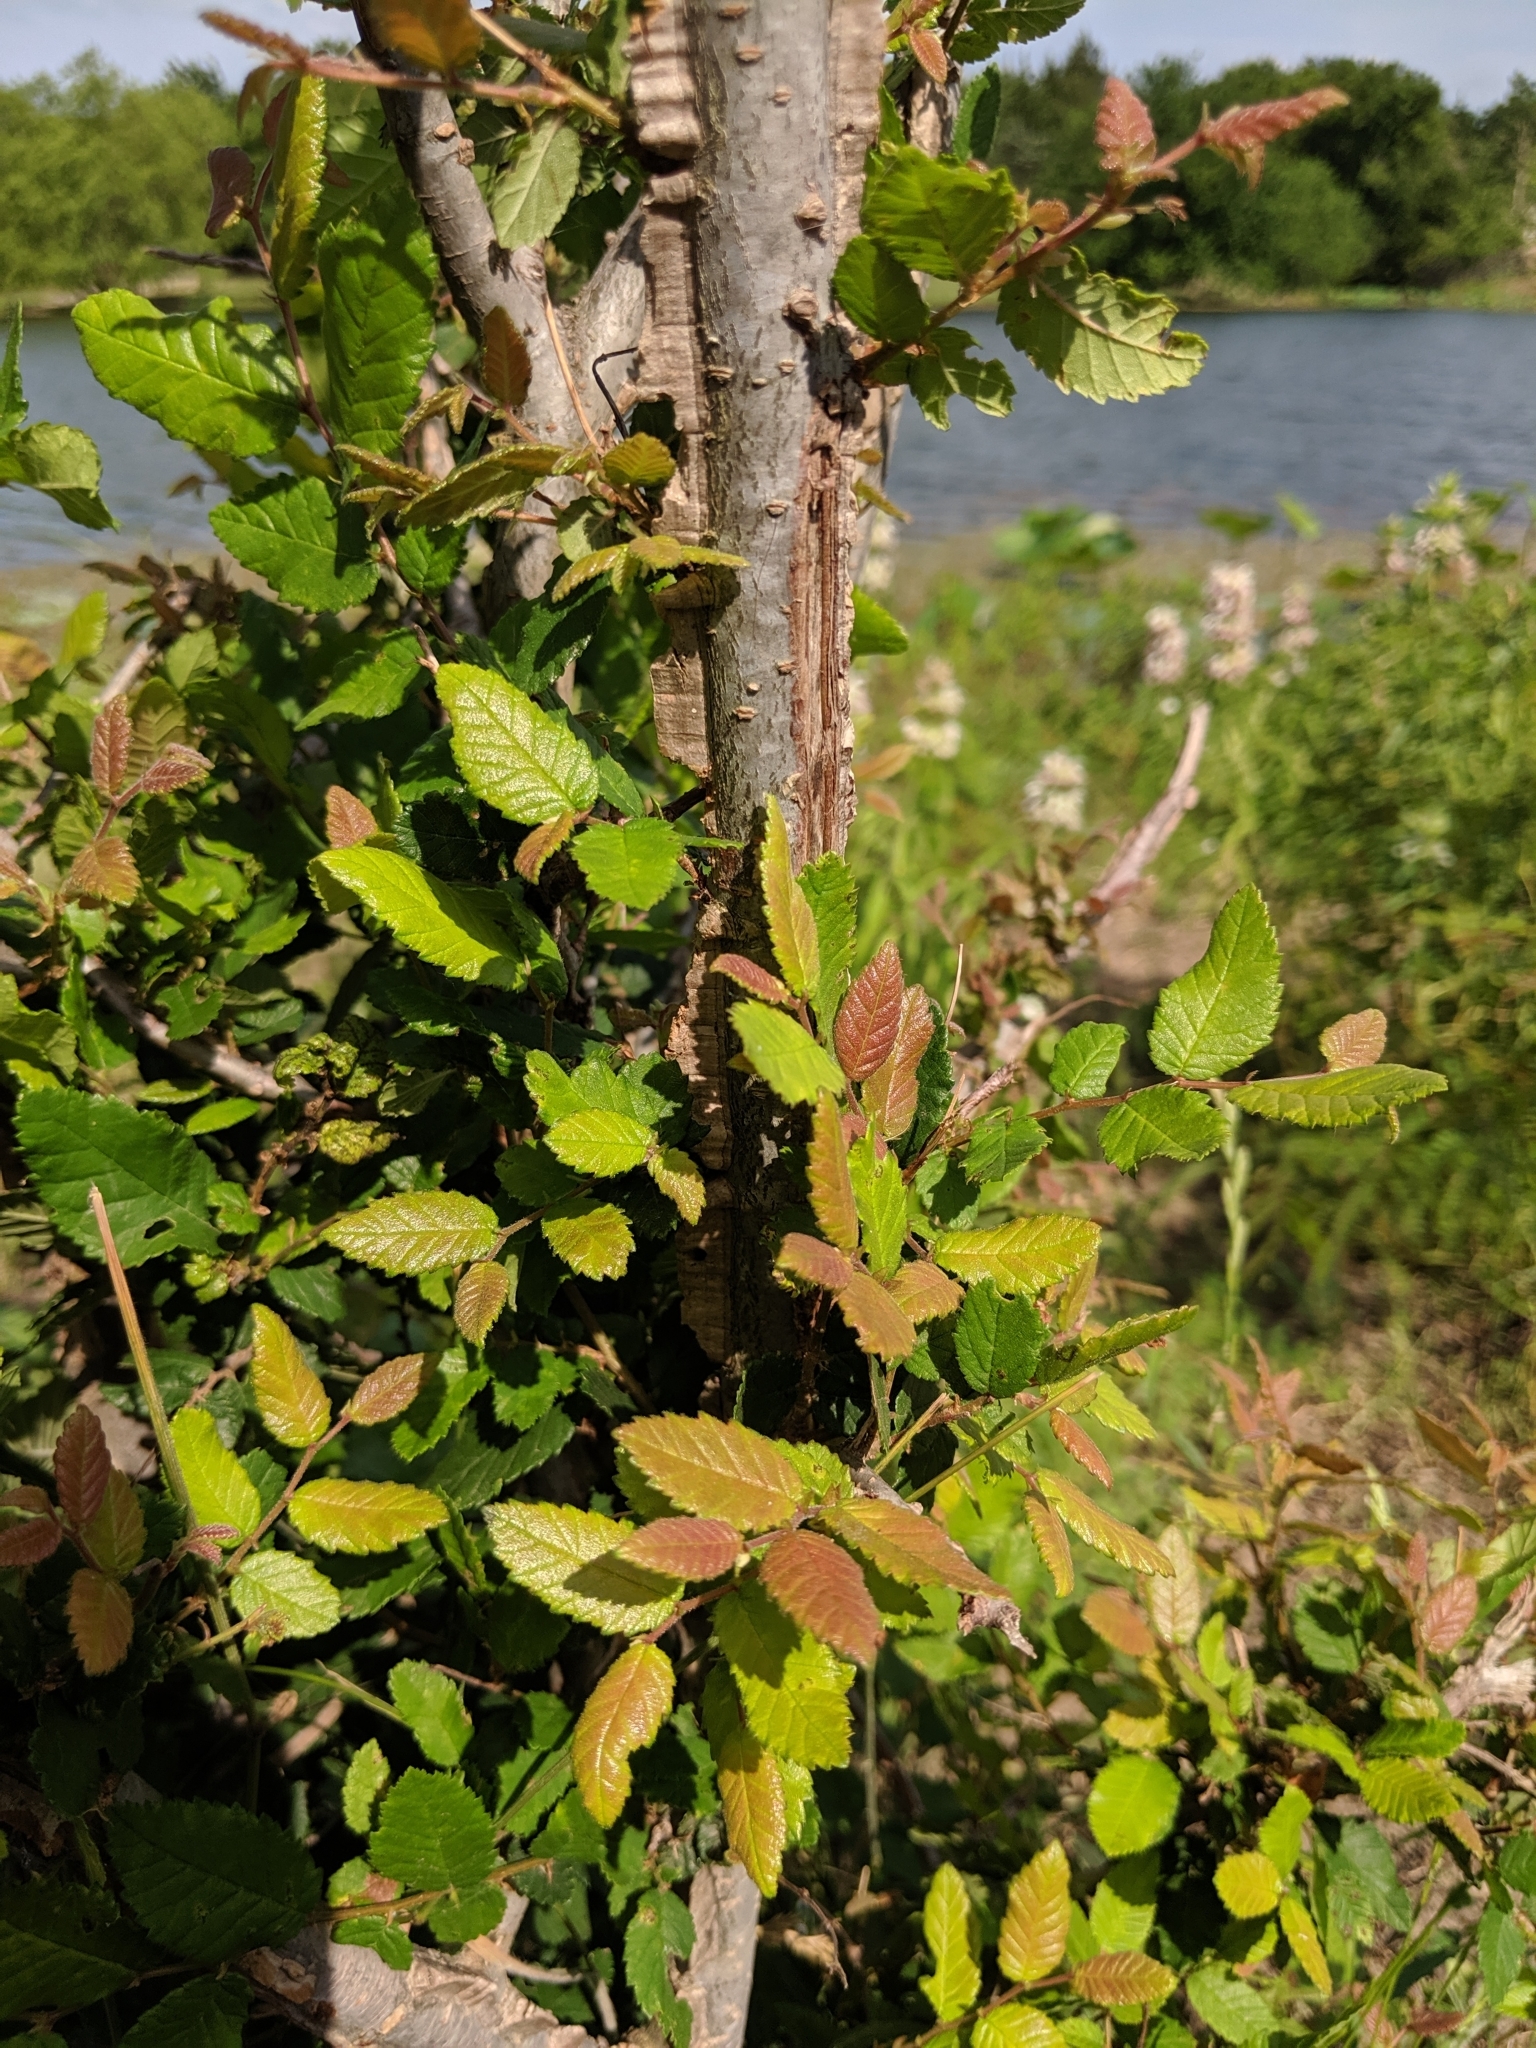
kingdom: Plantae
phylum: Tracheophyta
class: Magnoliopsida
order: Rosales
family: Ulmaceae
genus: Ulmus
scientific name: Ulmus crassifolia
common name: Basket elm
